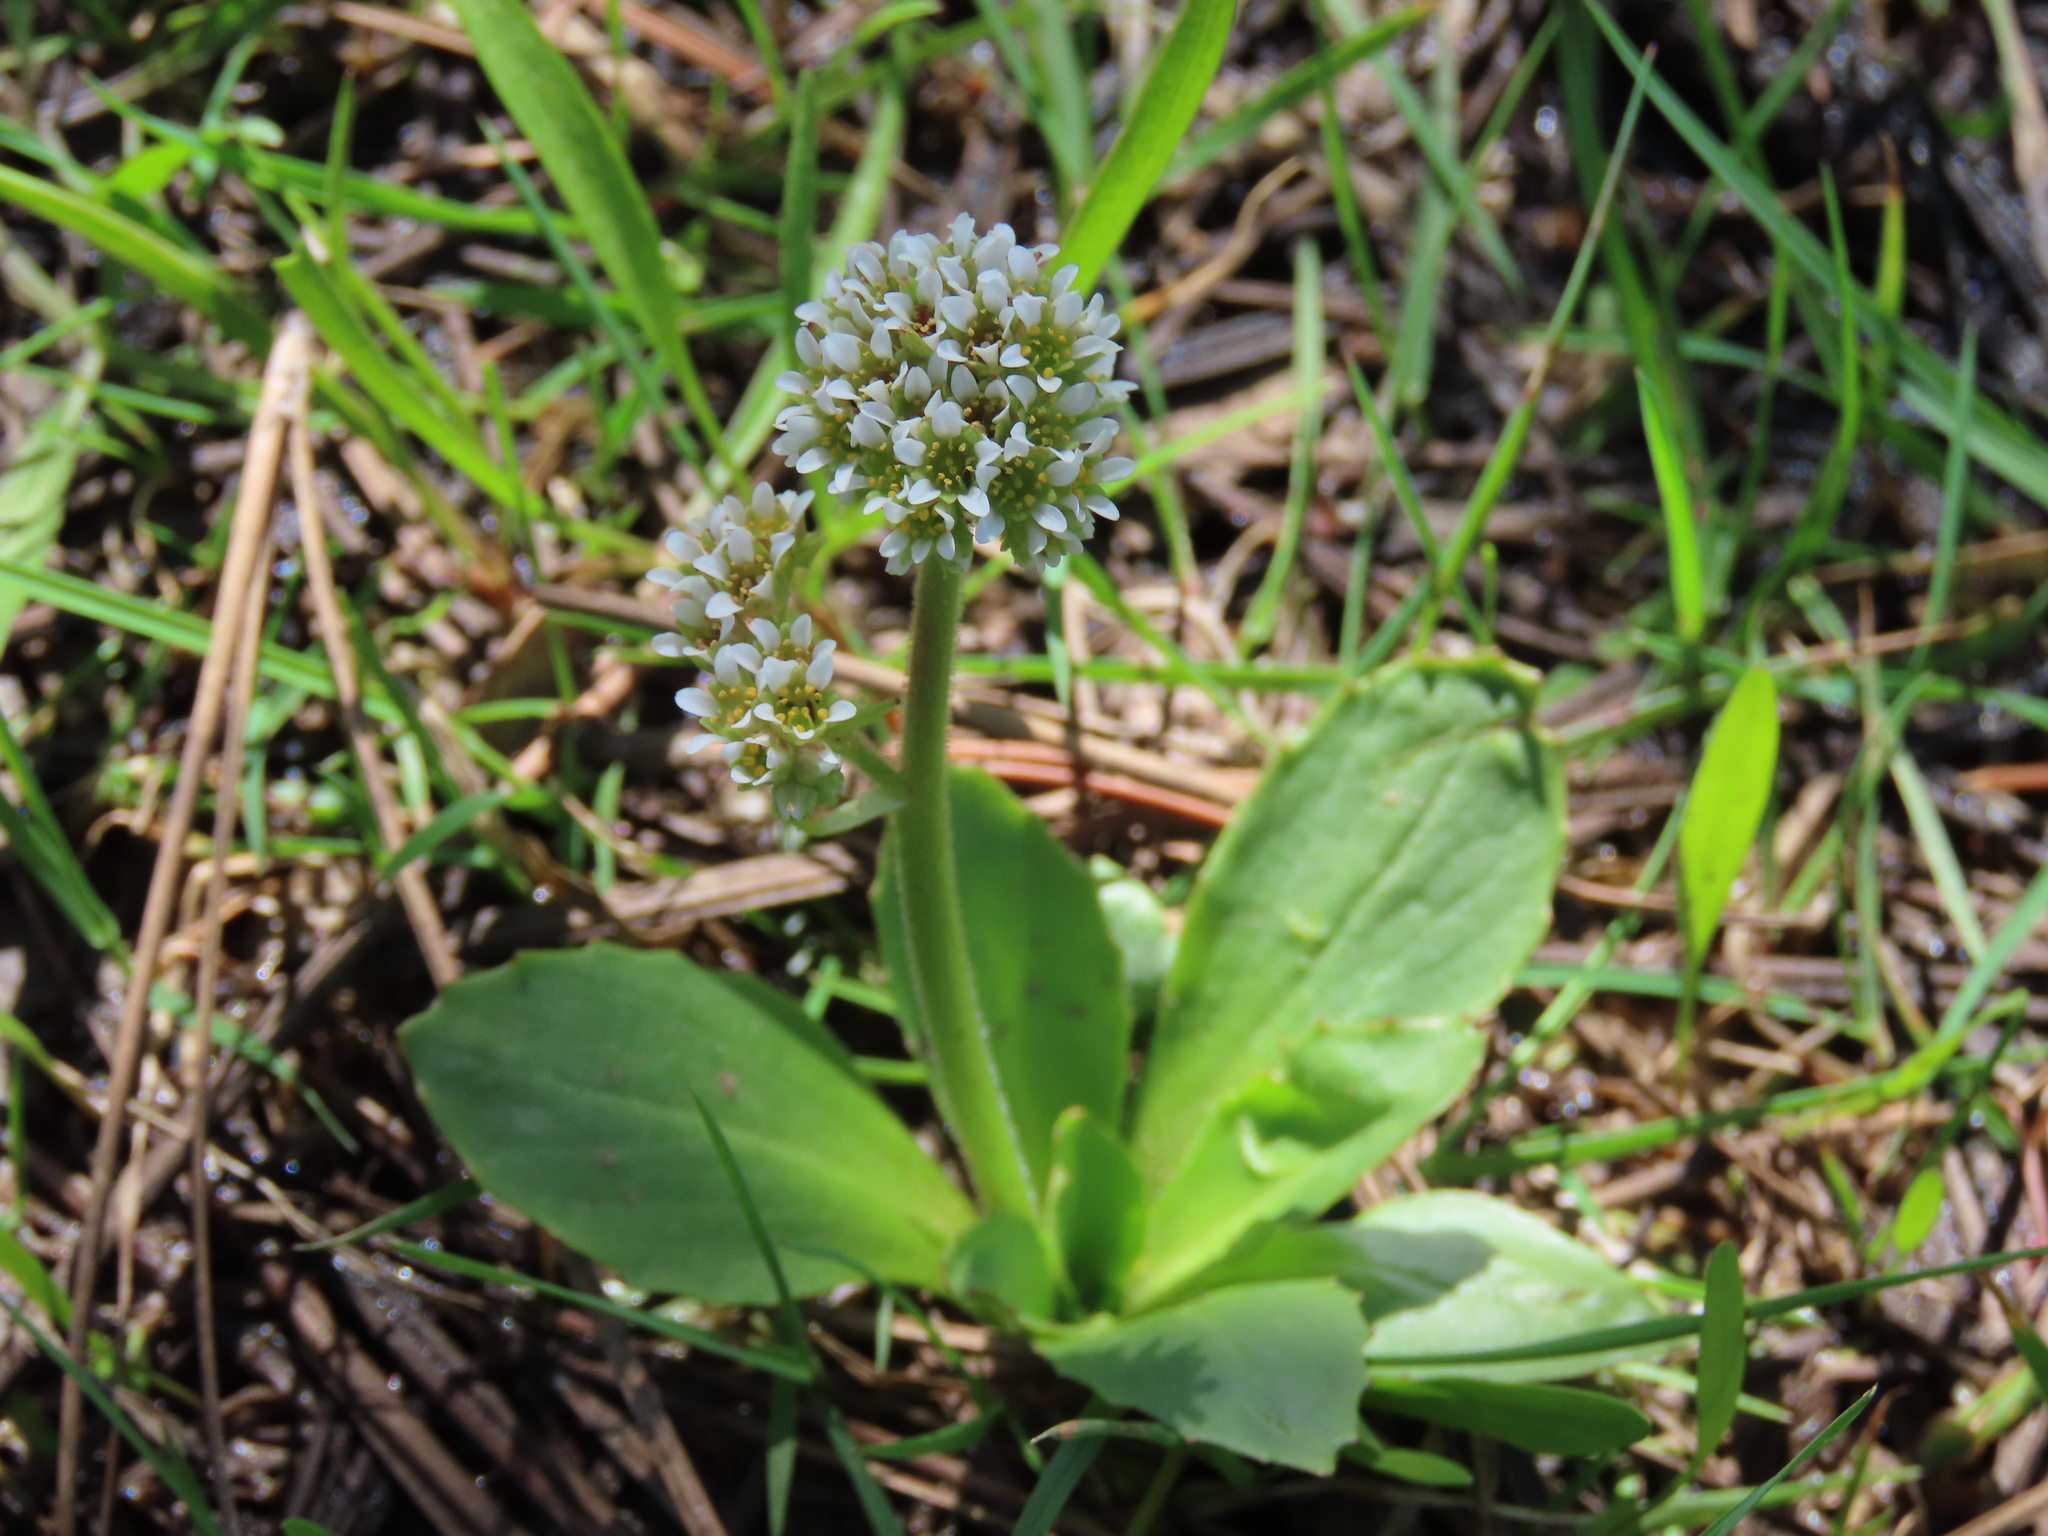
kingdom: Plantae
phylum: Tracheophyta
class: Magnoliopsida
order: Saxifragales
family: Saxifragaceae
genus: Micranthes
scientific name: Micranthes rhomboidea
